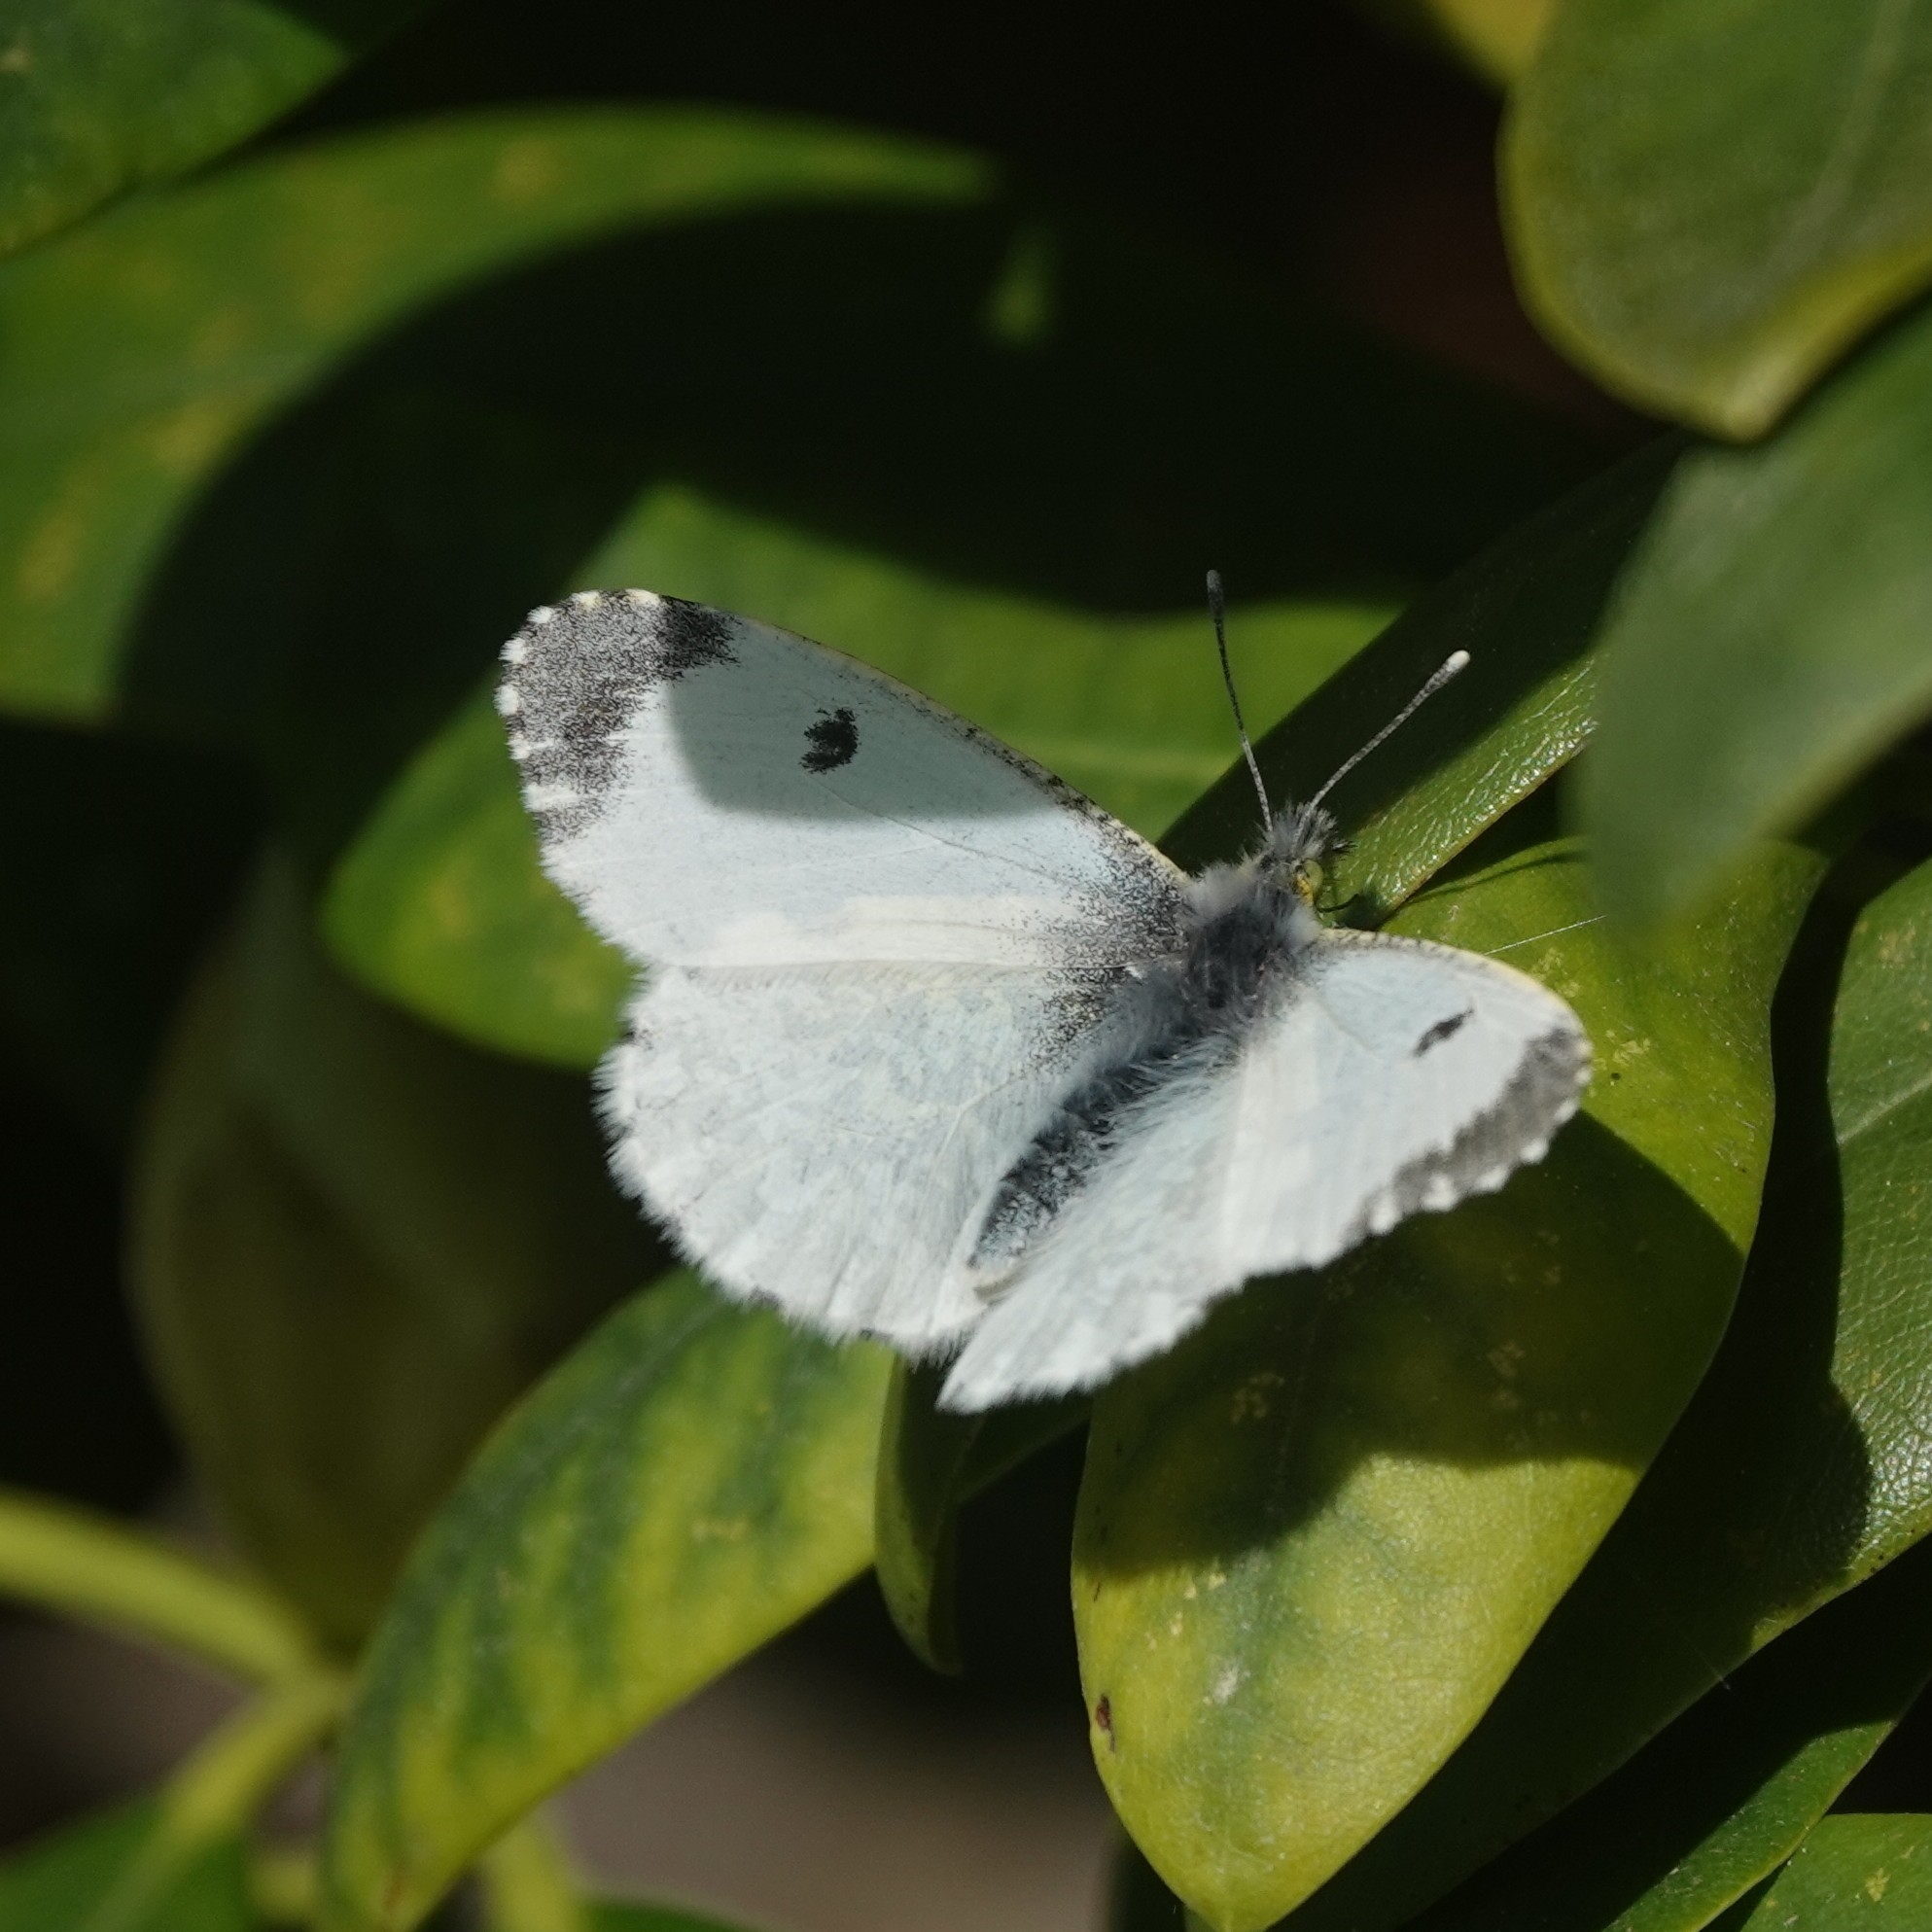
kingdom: Animalia
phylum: Arthropoda
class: Insecta
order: Lepidoptera
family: Pieridae
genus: Anthocharis
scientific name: Anthocharis cardamines
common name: Orange-tip
